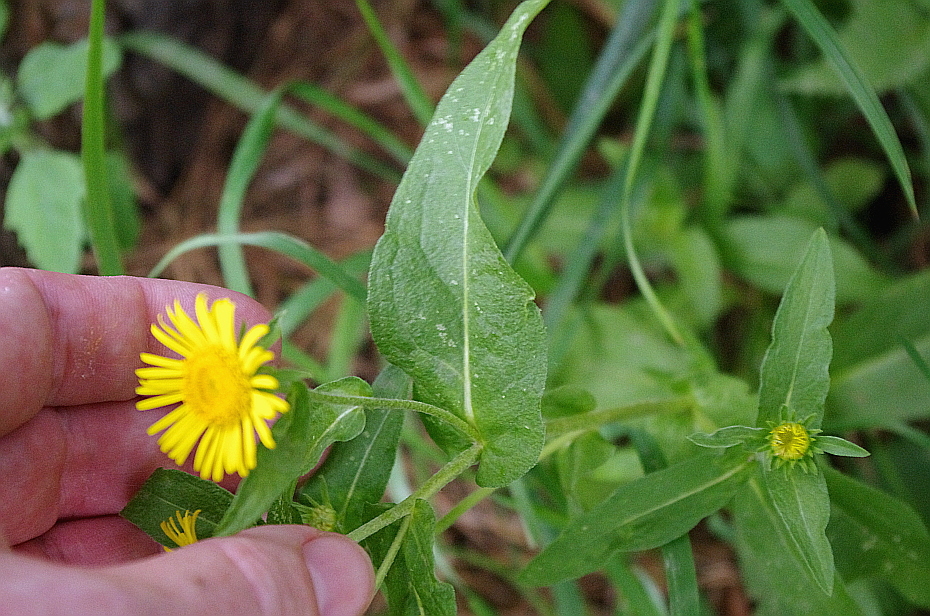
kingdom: Plantae
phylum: Tracheophyta
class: Magnoliopsida
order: Asterales
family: Asteraceae
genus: Pentanema
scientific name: Pentanema britannicum
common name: British elecampane
